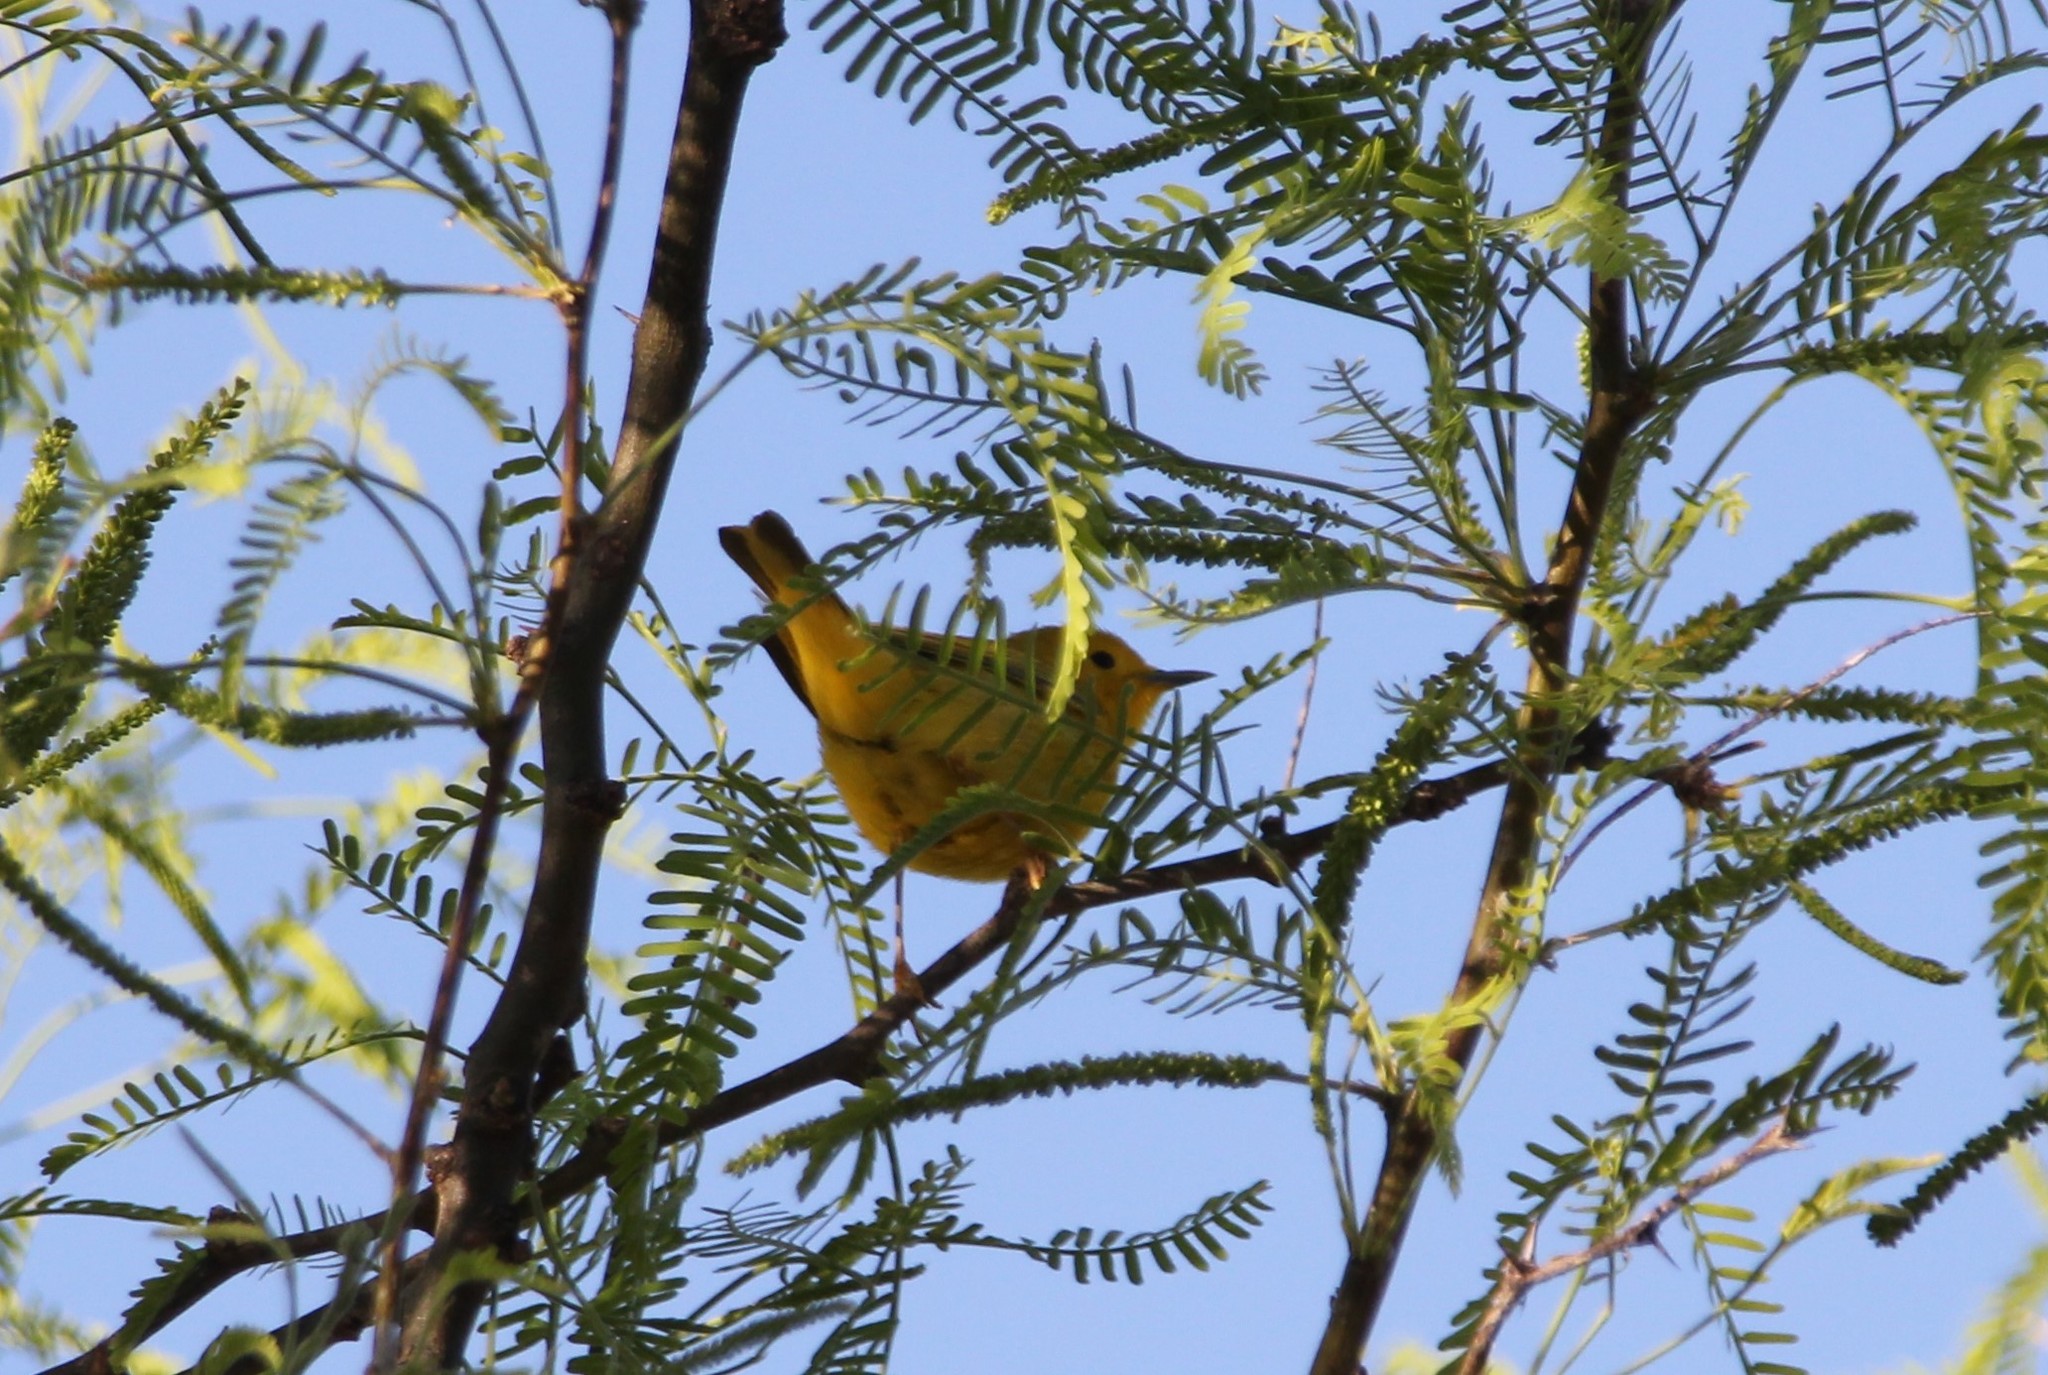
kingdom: Animalia
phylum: Chordata
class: Aves
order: Passeriformes
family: Parulidae
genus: Setophaga
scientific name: Setophaga petechia
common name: Yellow warbler
